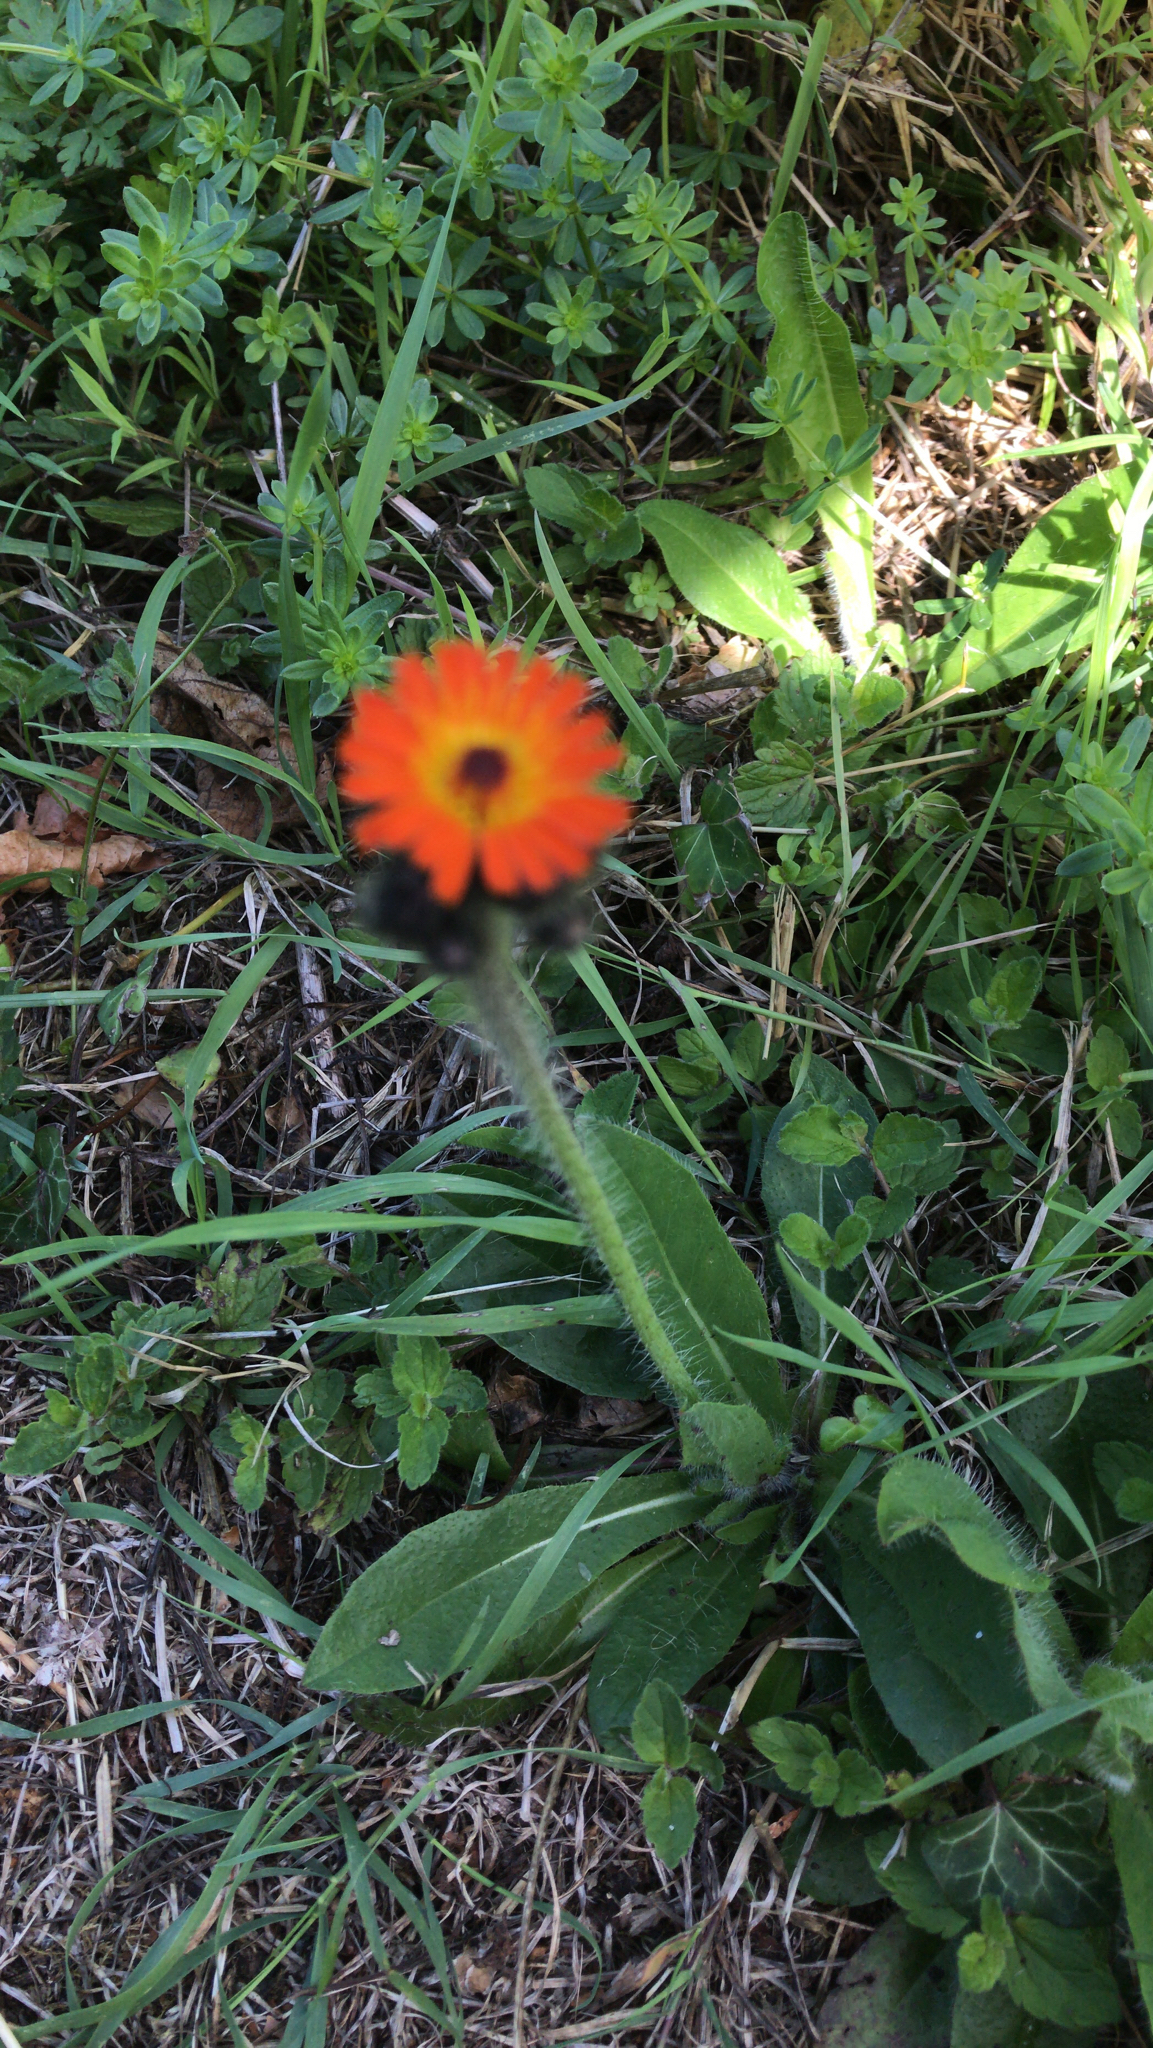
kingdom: Plantae
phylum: Tracheophyta
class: Magnoliopsida
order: Asterales
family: Asteraceae
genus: Pilosella
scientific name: Pilosella aurantiaca
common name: Fox-and-cubs
